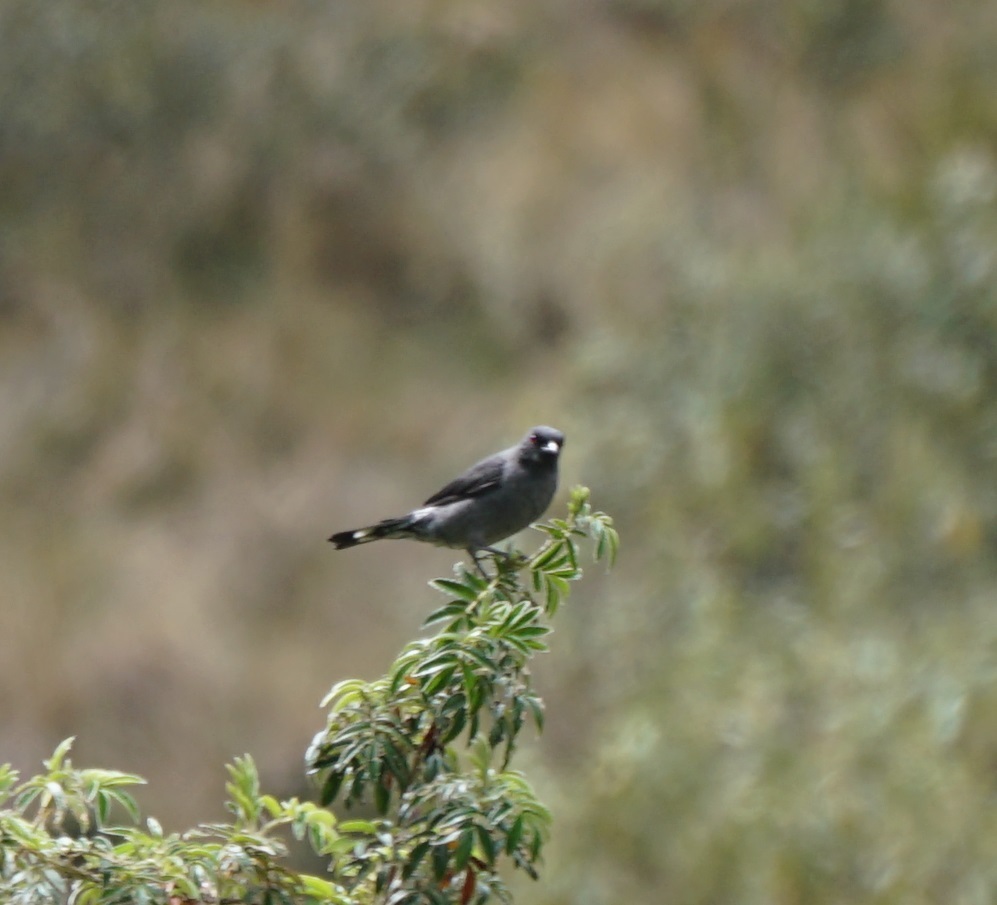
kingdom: Animalia
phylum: Chordata
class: Aves
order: Passeriformes
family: Cotingidae
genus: Ampelion
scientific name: Ampelion rubrocristatus
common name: Red-crested cotinga
